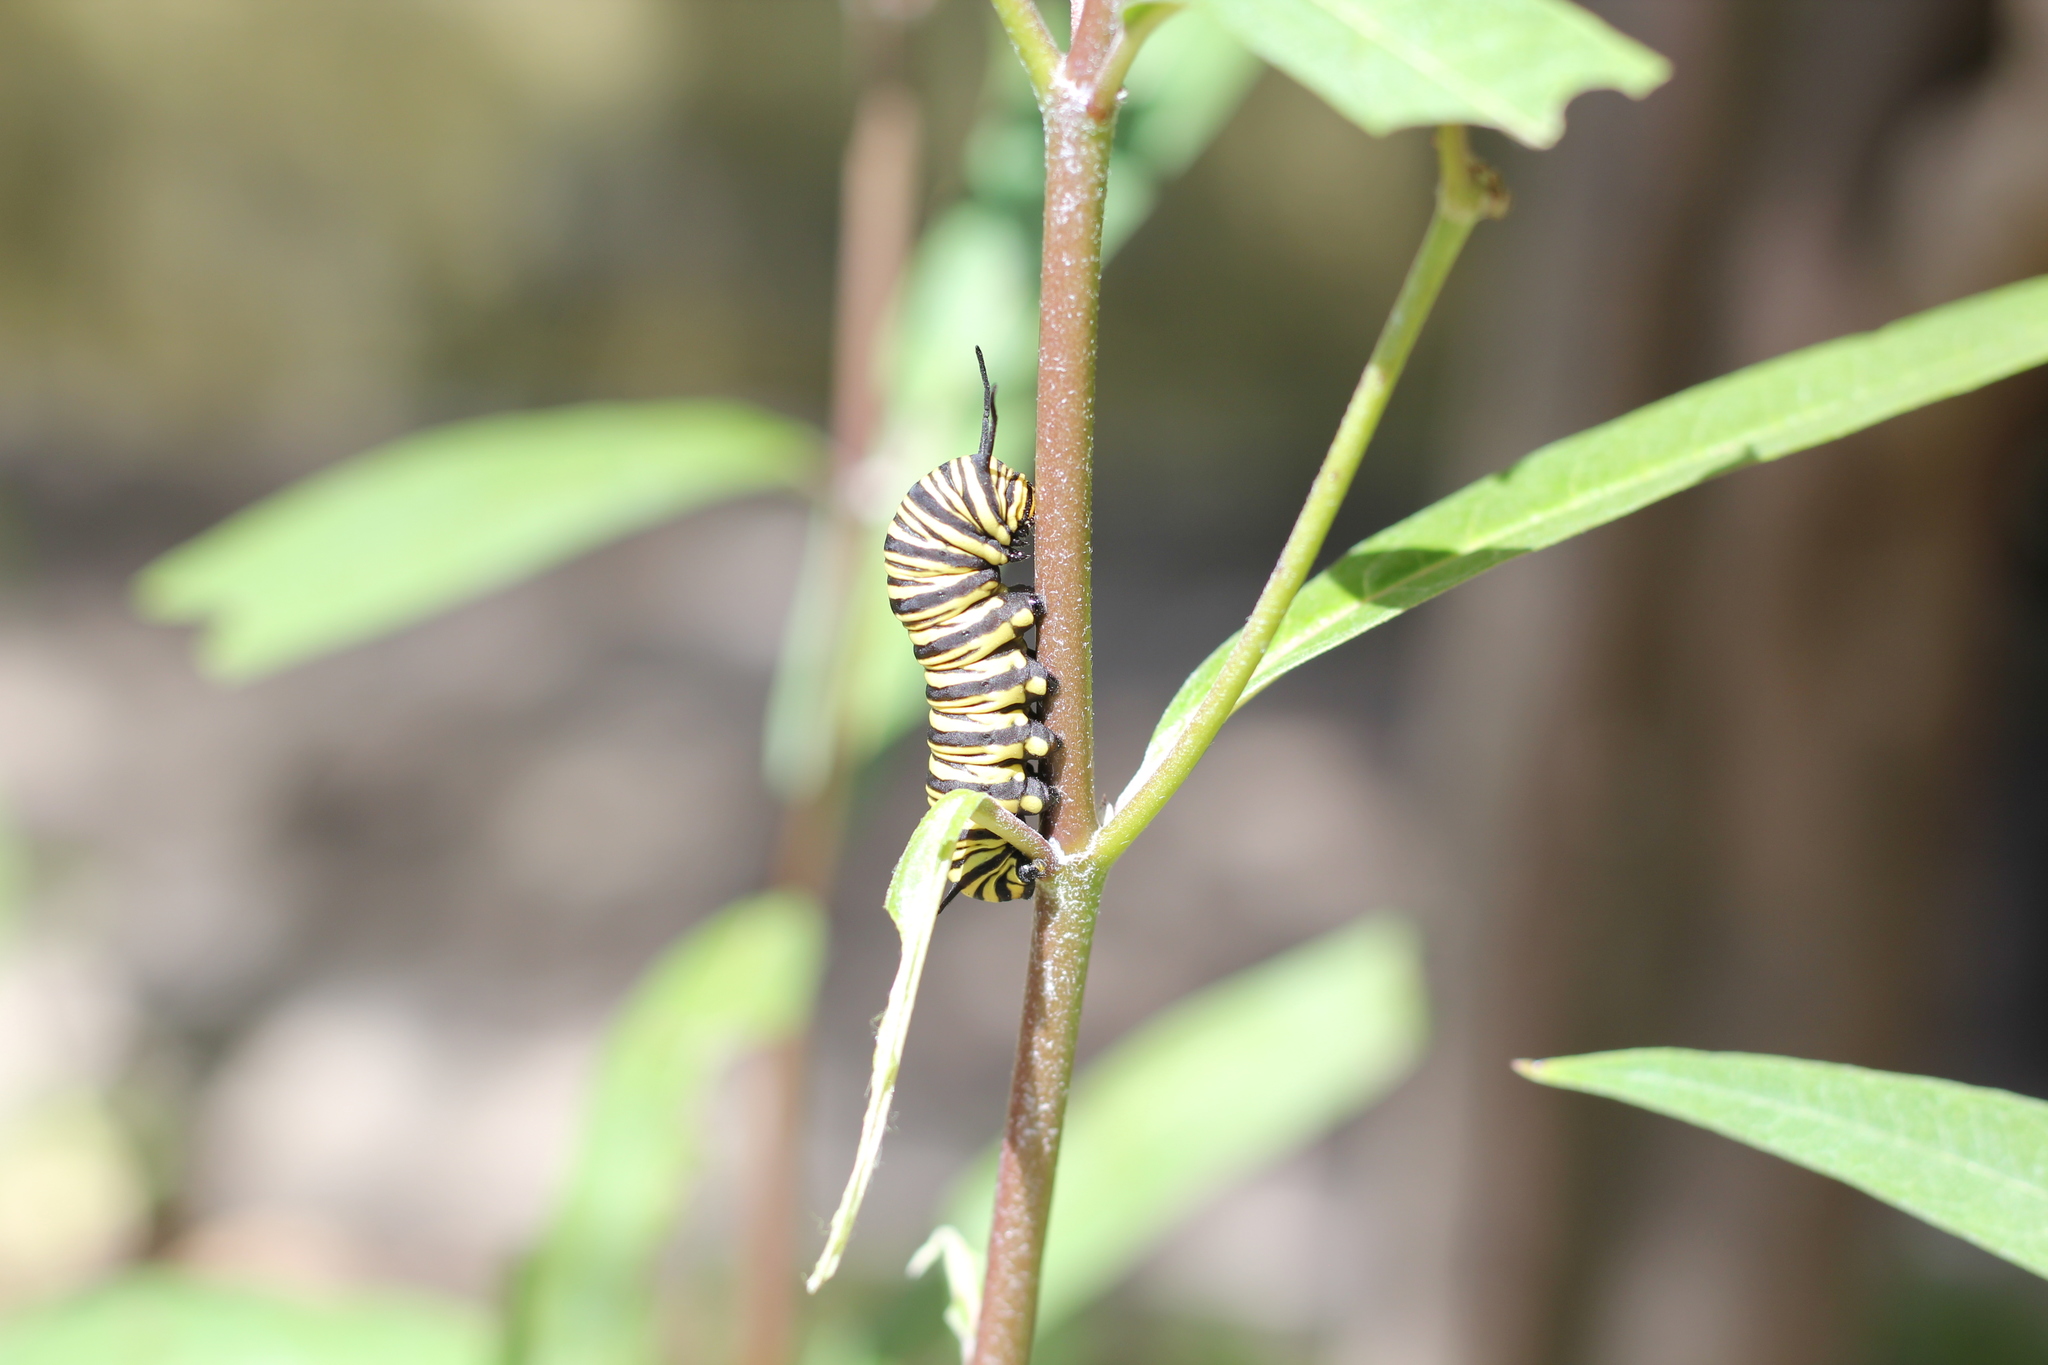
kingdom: Animalia
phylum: Arthropoda
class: Insecta
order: Lepidoptera
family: Nymphalidae
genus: Danaus
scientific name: Danaus erippus
